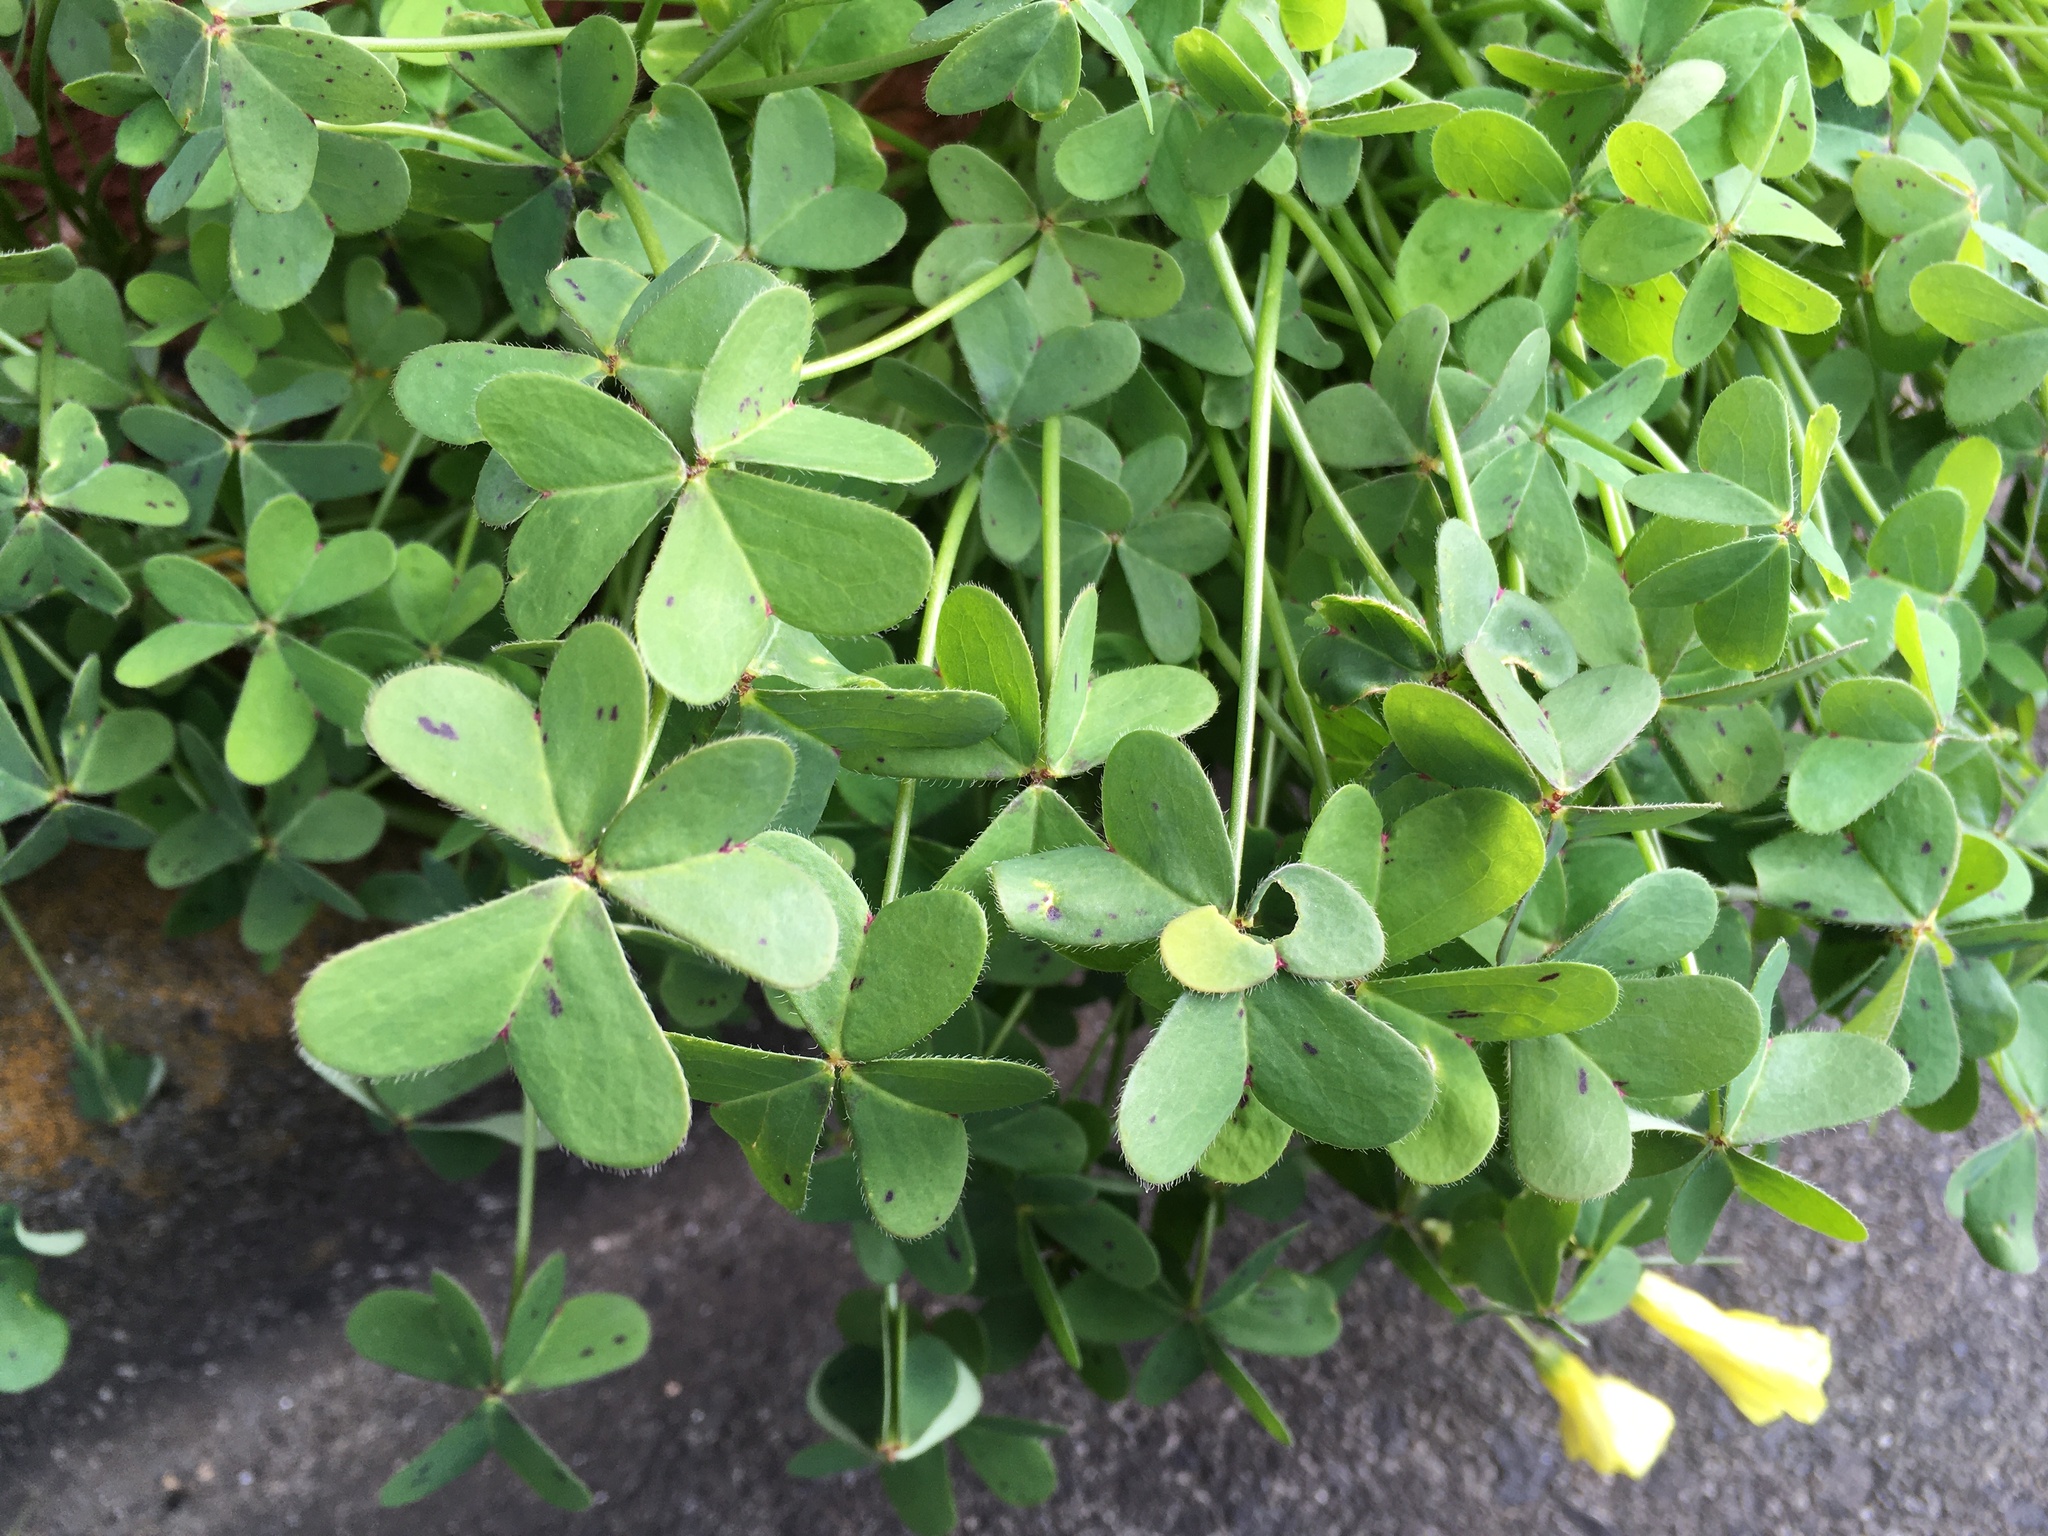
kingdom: Plantae
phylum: Tracheophyta
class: Magnoliopsida
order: Oxalidales
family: Oxalidaceae
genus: Oxalis
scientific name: Oxalis pes-caprae
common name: Bermuda-buttercup
